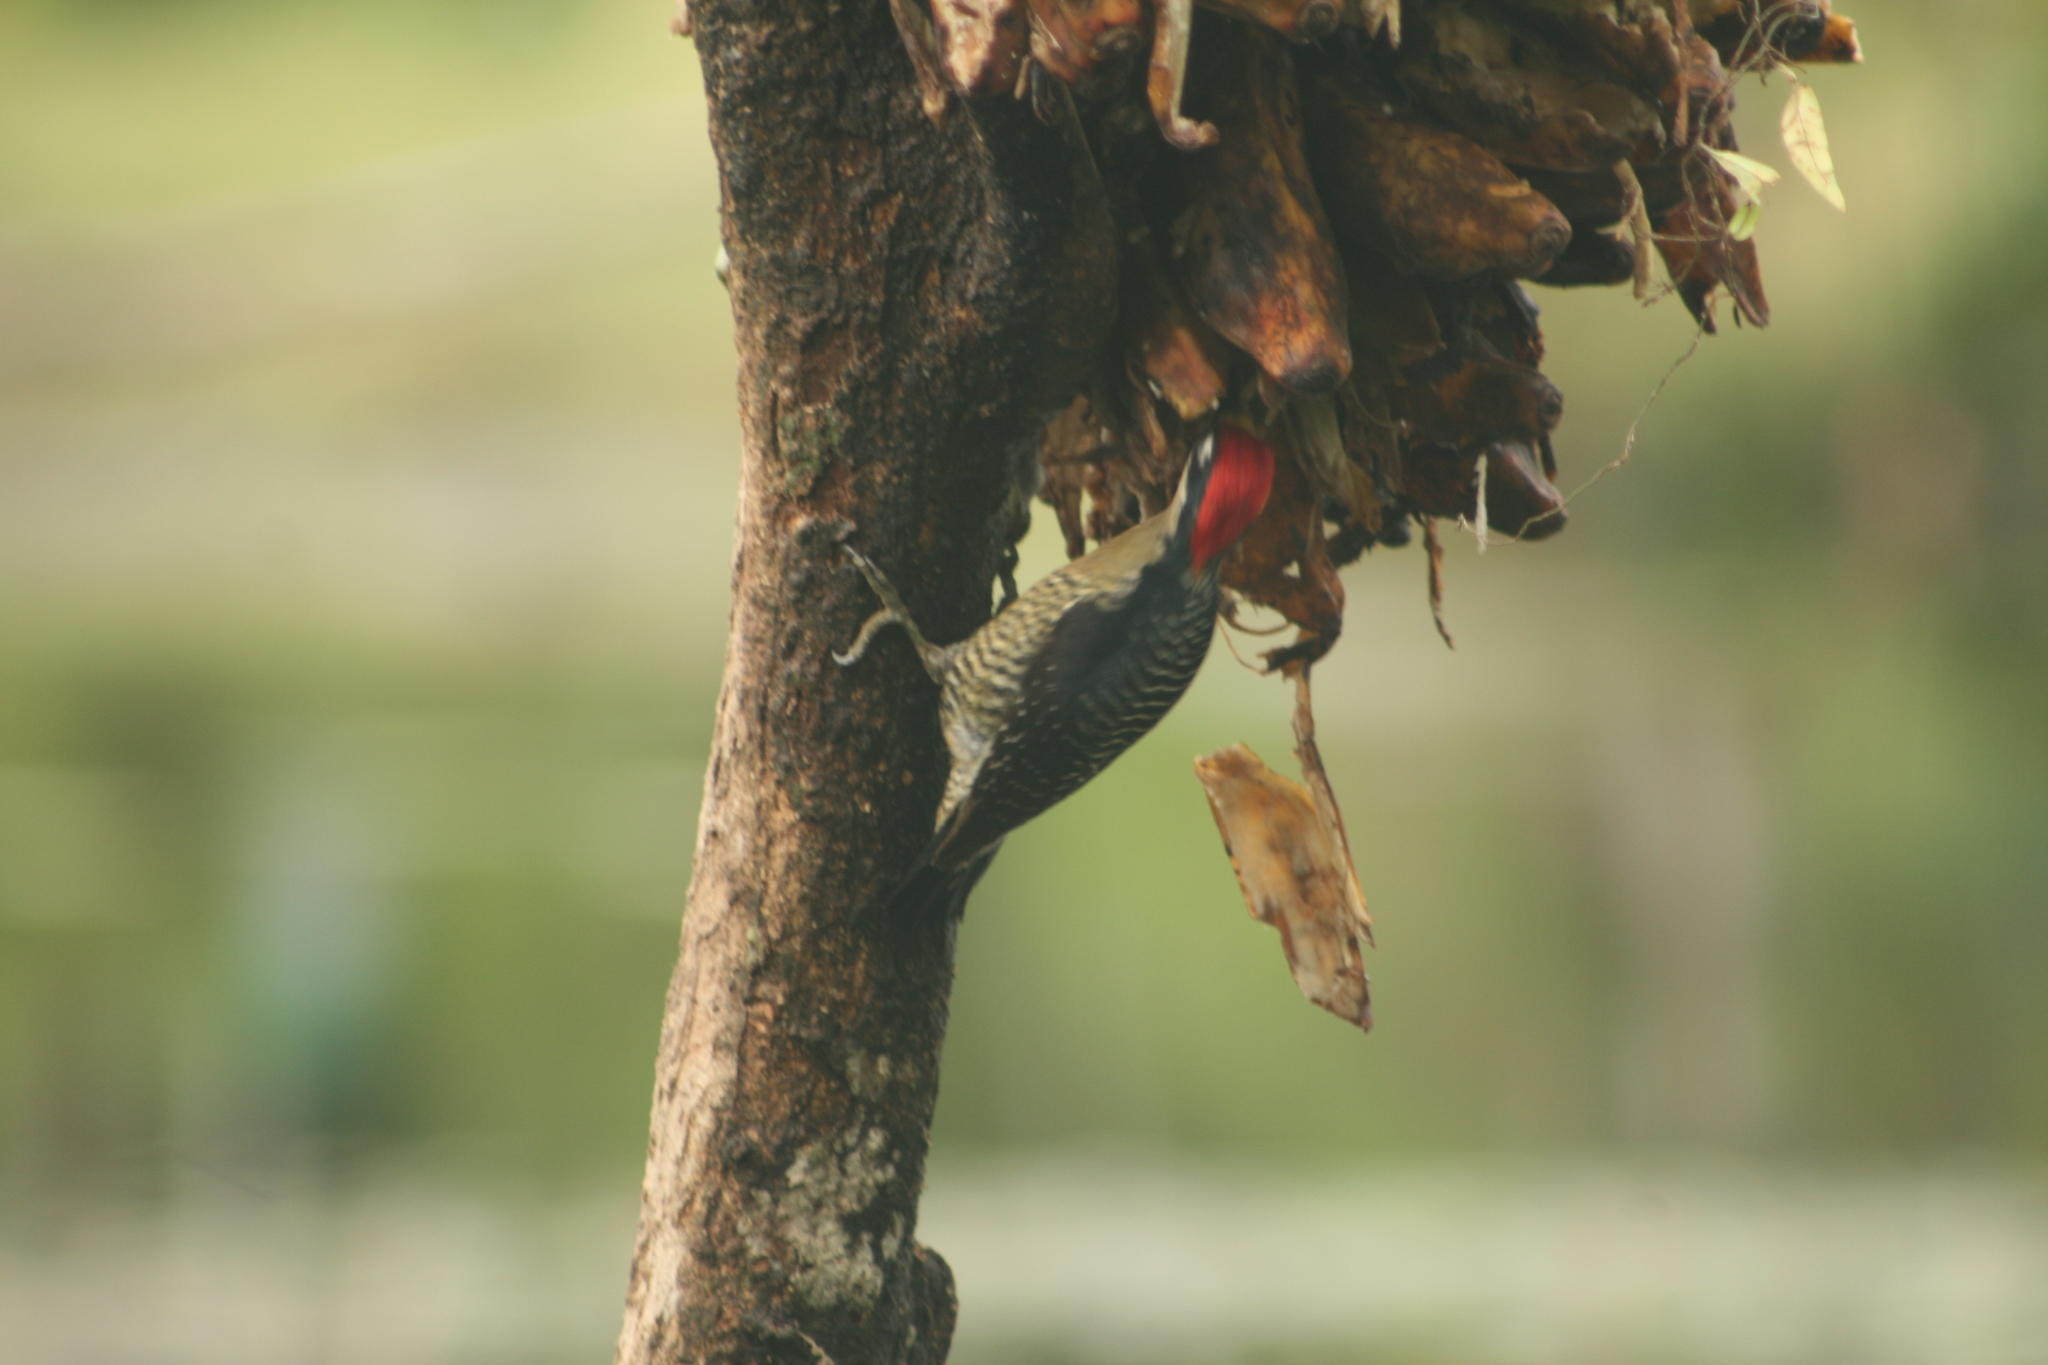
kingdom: Animalia
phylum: Chordata
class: Aves
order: Piciformes
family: Picidae
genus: Melanerpes
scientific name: Melanerpes pucherani
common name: Black-cheeked woodpecker
